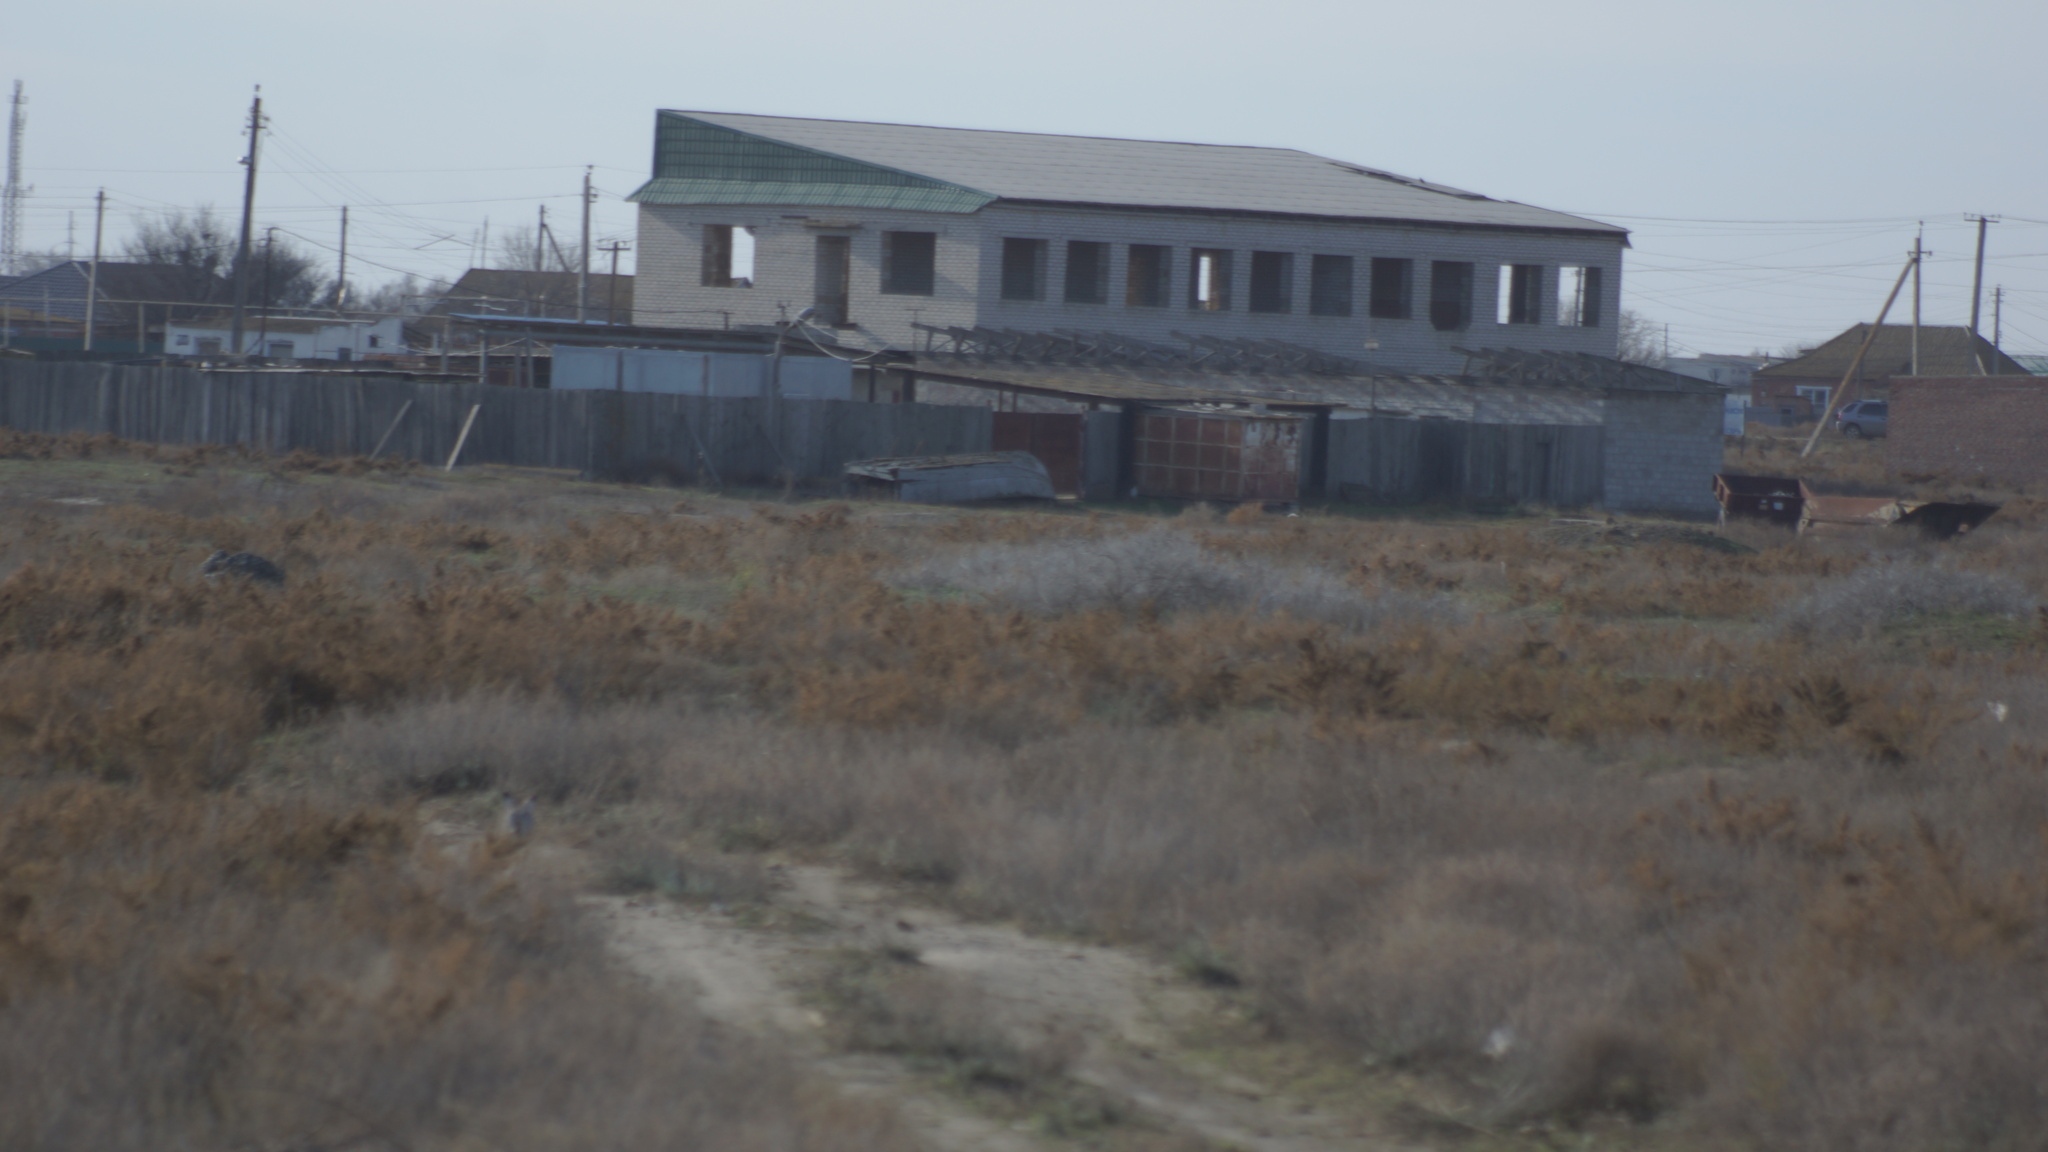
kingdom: Animalia
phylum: Chordata
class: Mammalia
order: Lagomorpha
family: Leporidae
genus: Lepus
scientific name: Lepus europaeus
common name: European hare
